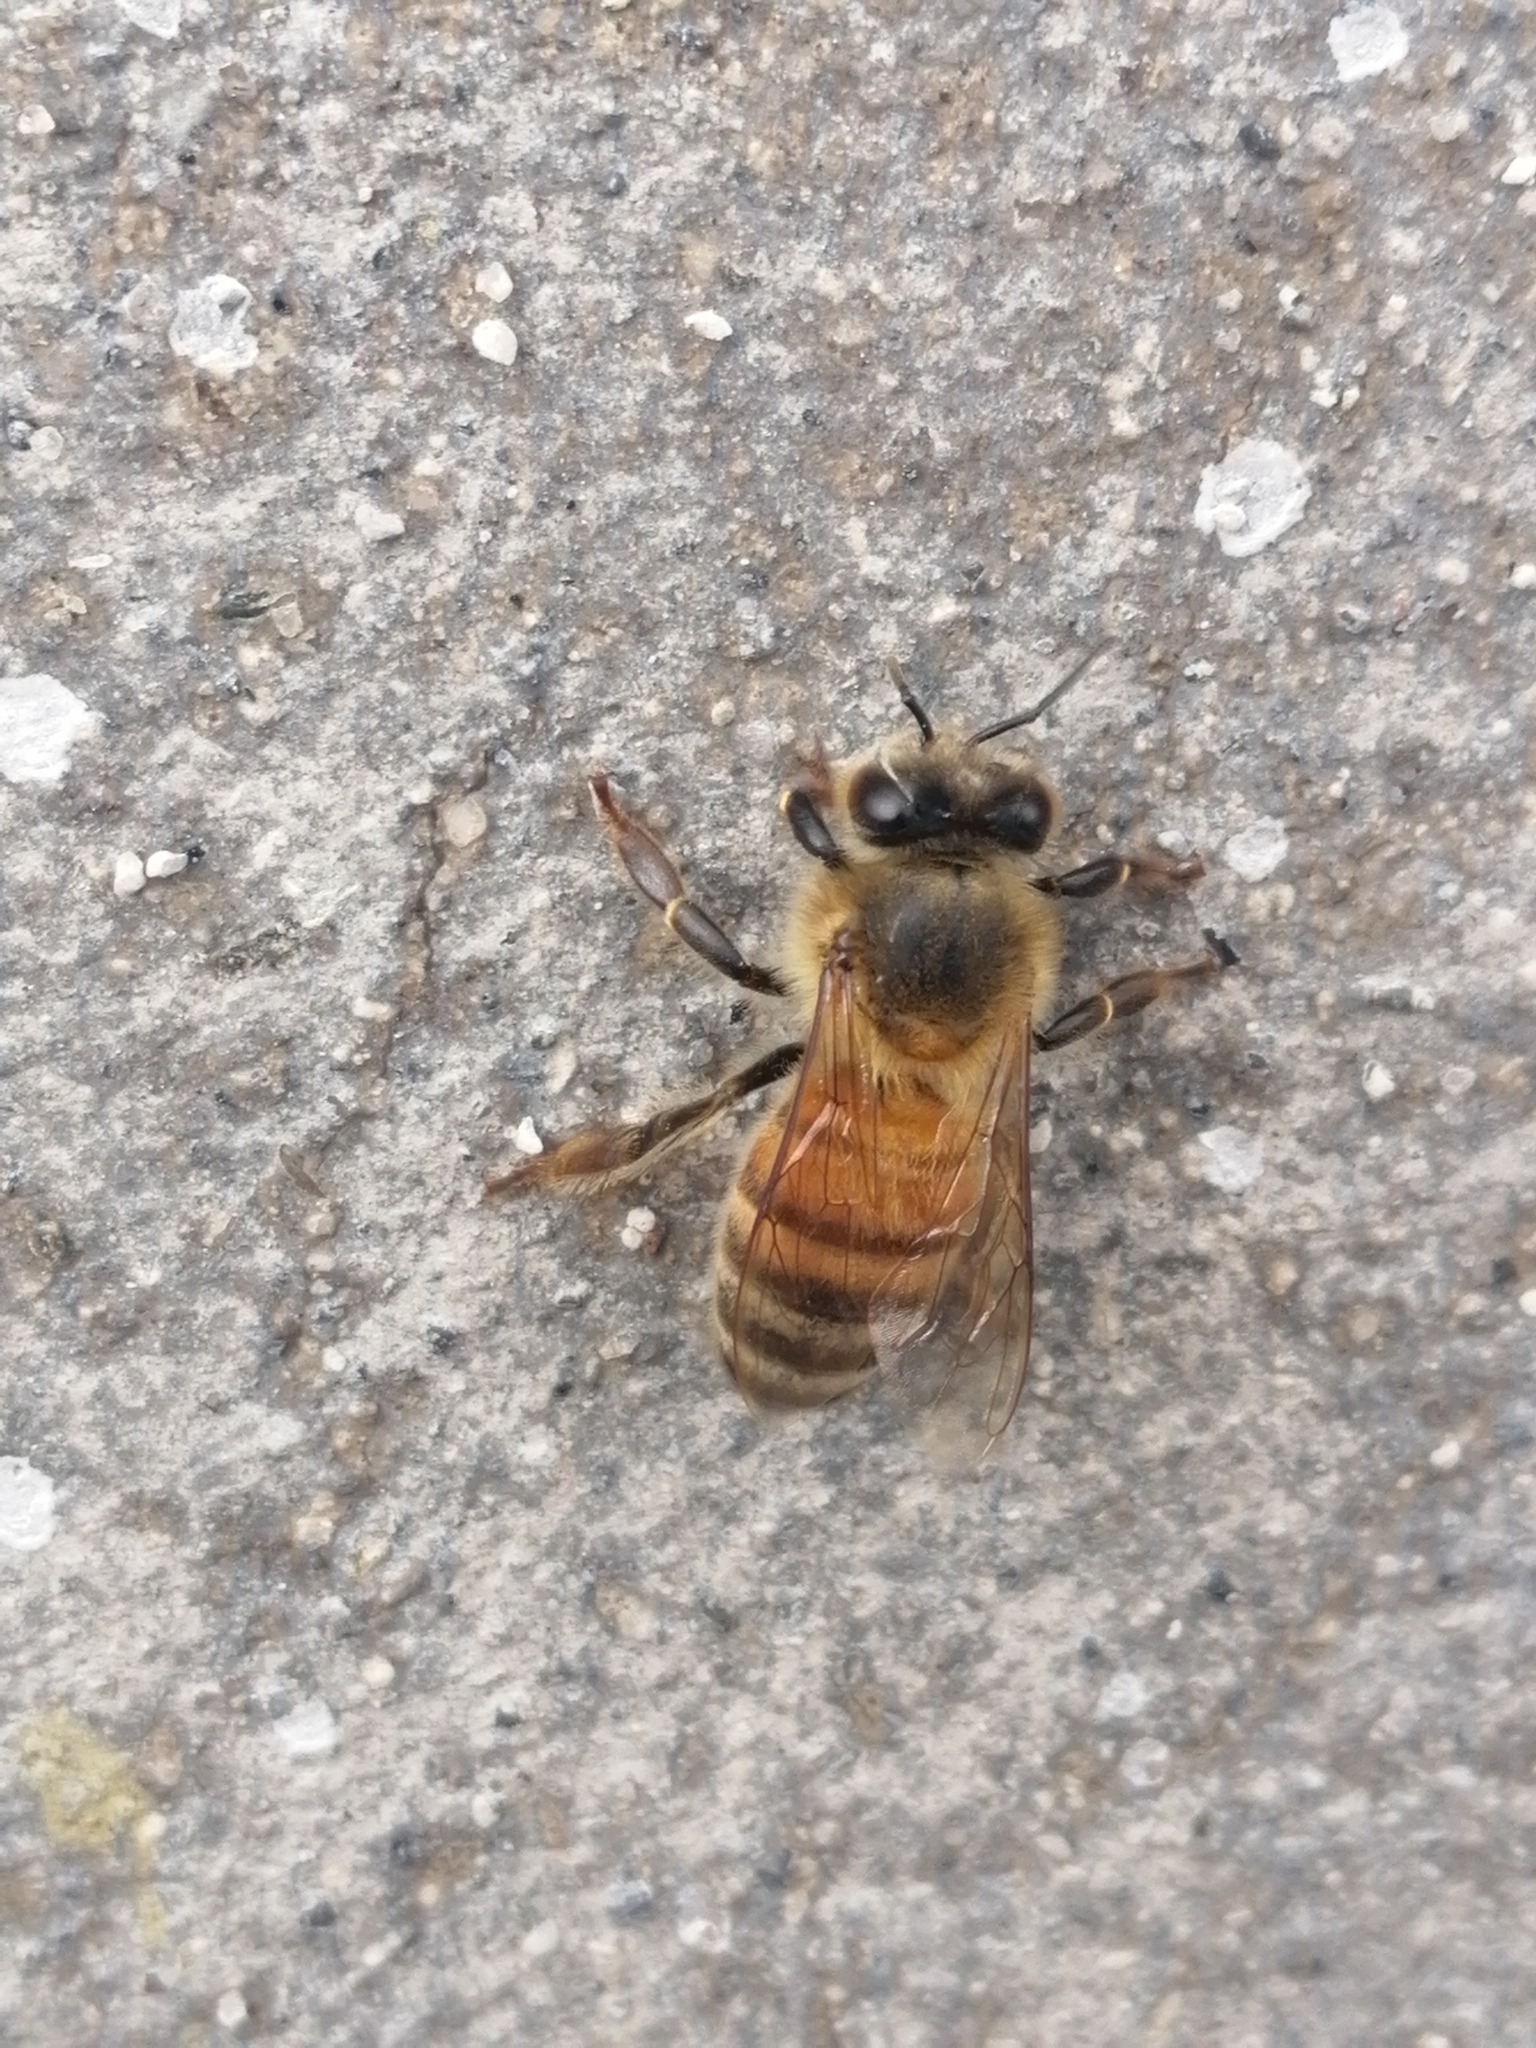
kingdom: Animalia
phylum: Arthropoda
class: Insecta
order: Hymenoptera
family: Apidae
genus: Apis
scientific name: Apis mellifera
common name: Honey bee
